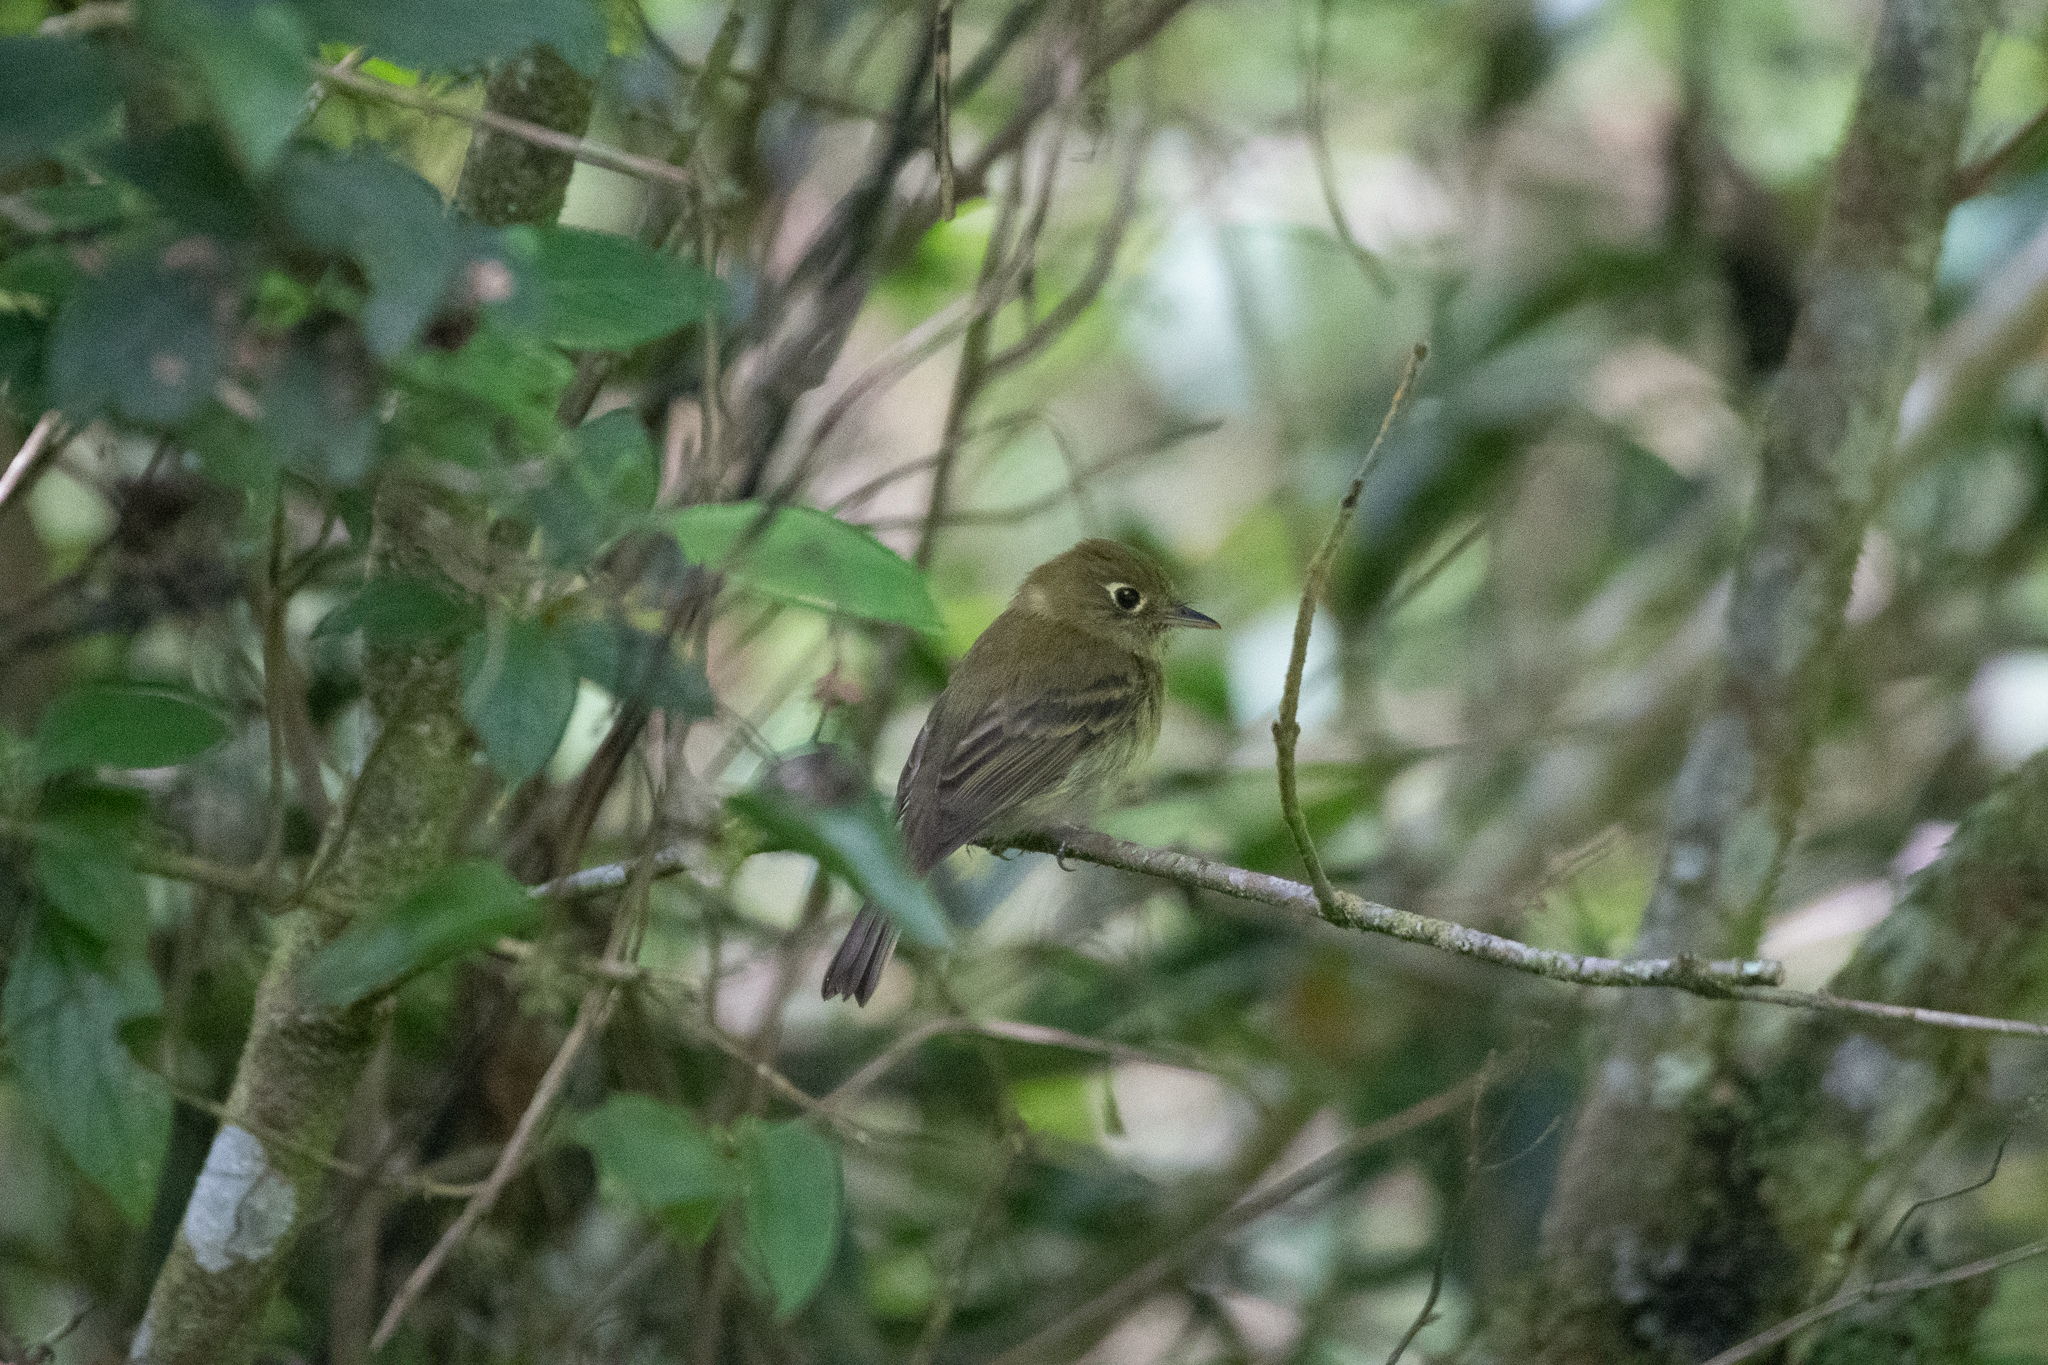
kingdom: Animalia
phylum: Chordata
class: Aves
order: Passeriformes
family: Tyrannidae
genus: Empidonax
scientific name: Empidonax flavescens
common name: Yellowish flycatcher
